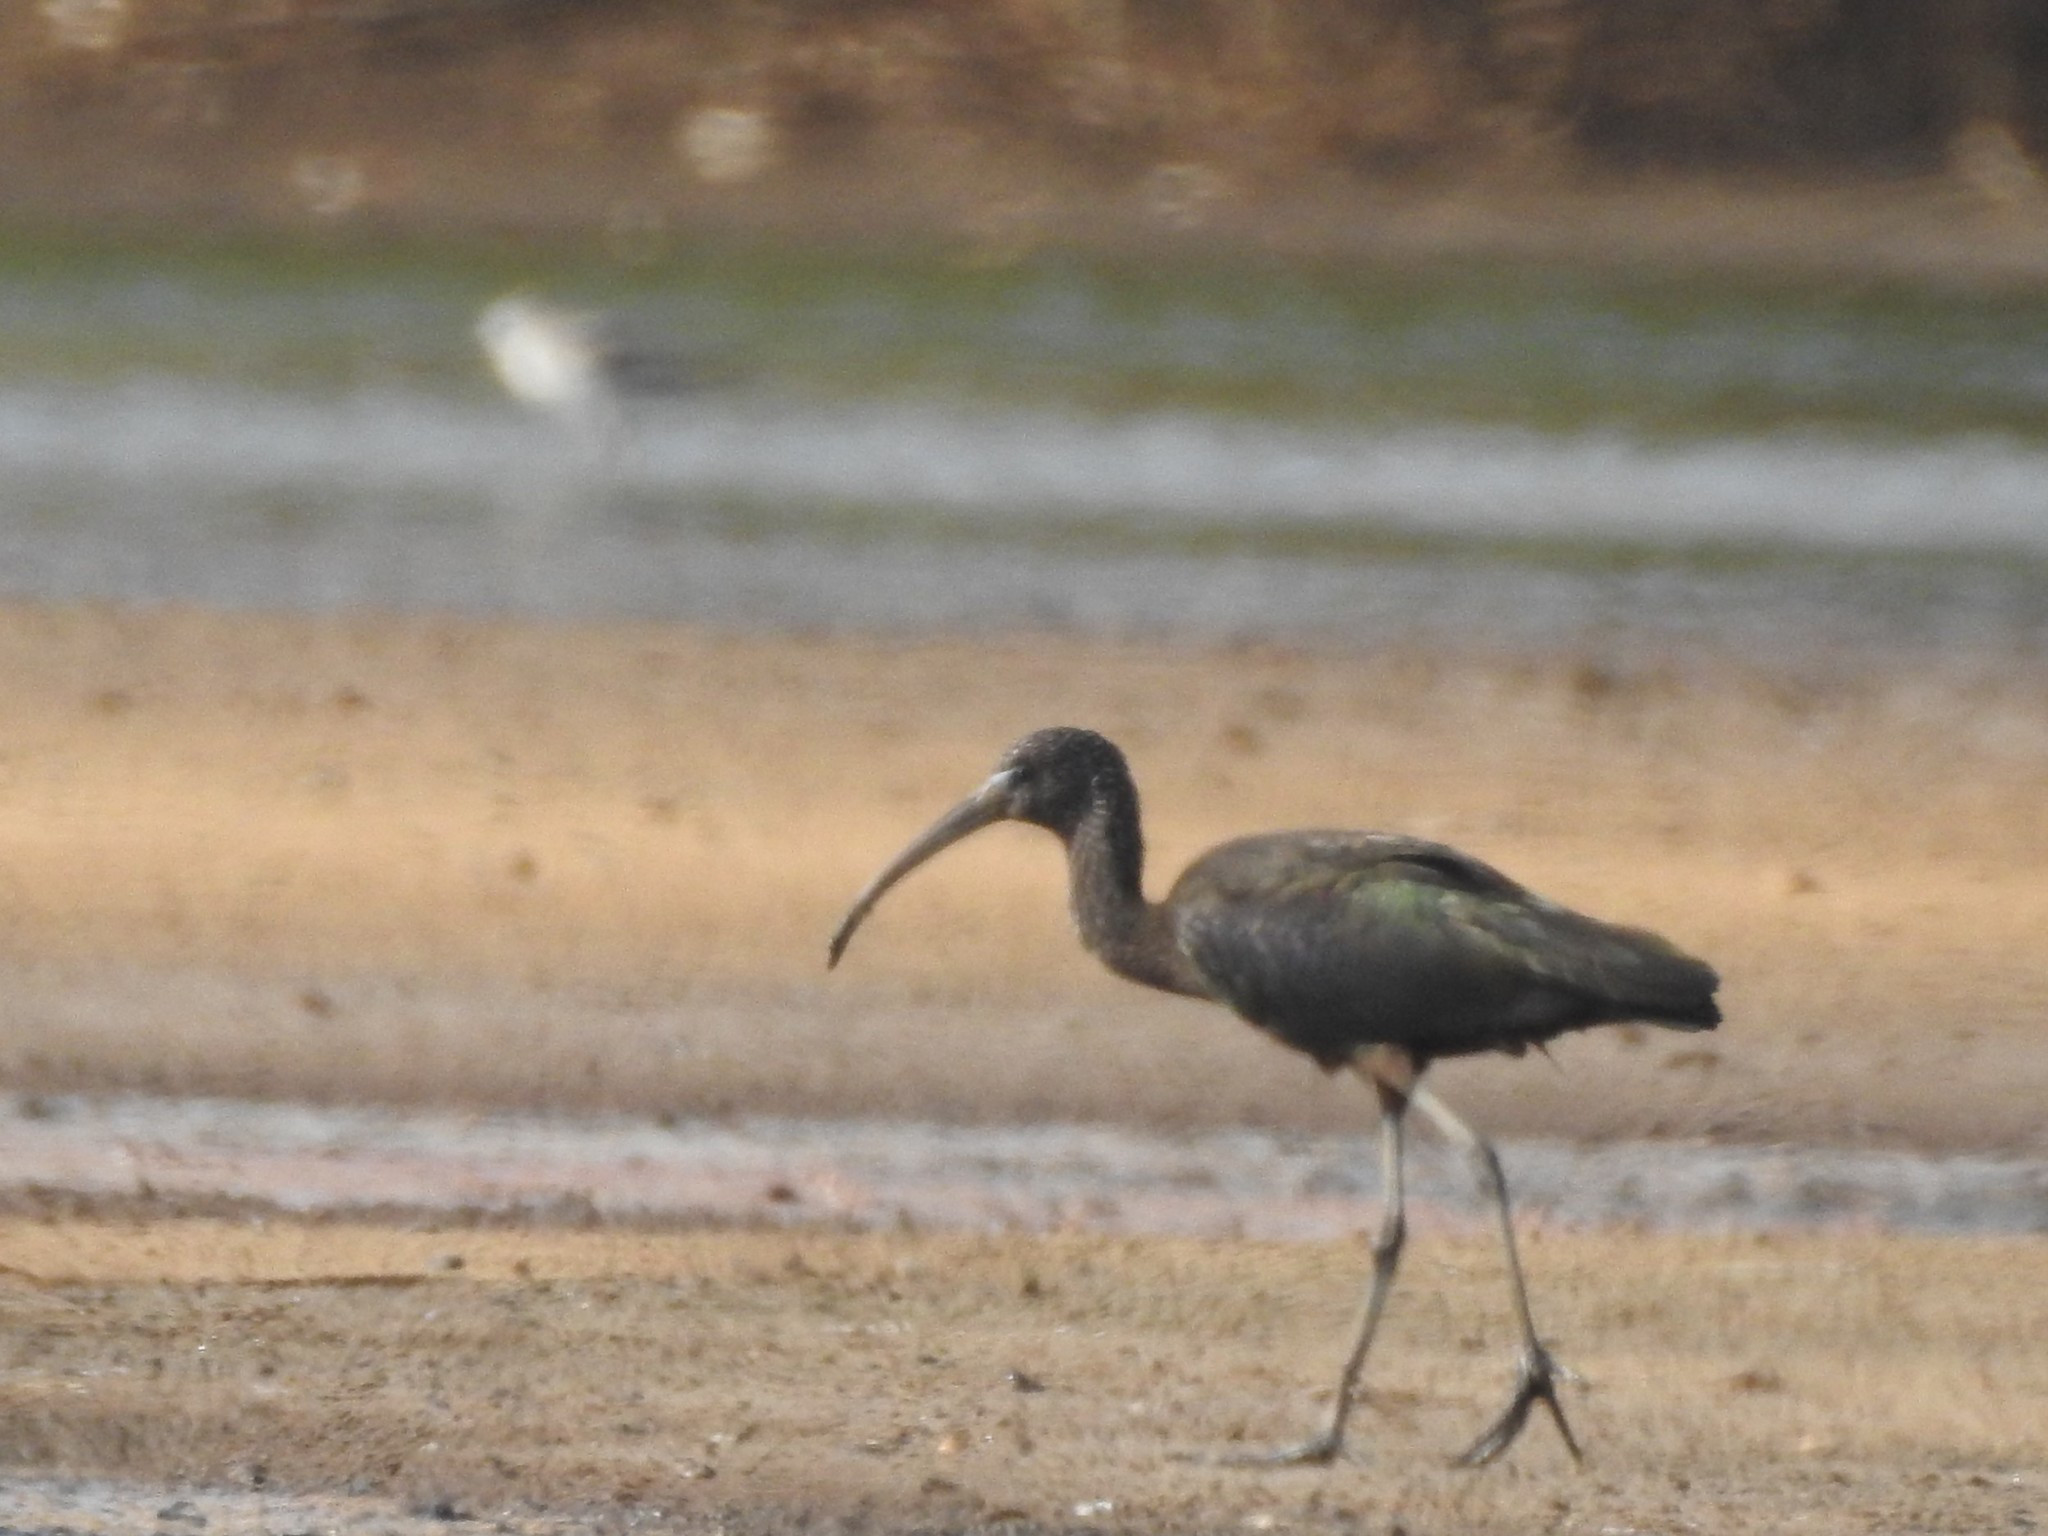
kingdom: Animalia
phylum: Chordata
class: Aves
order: Pelecaniformes
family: Threskiornithidae
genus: Plegadis
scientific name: Plegadis falcinellus
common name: Glossy ibis
